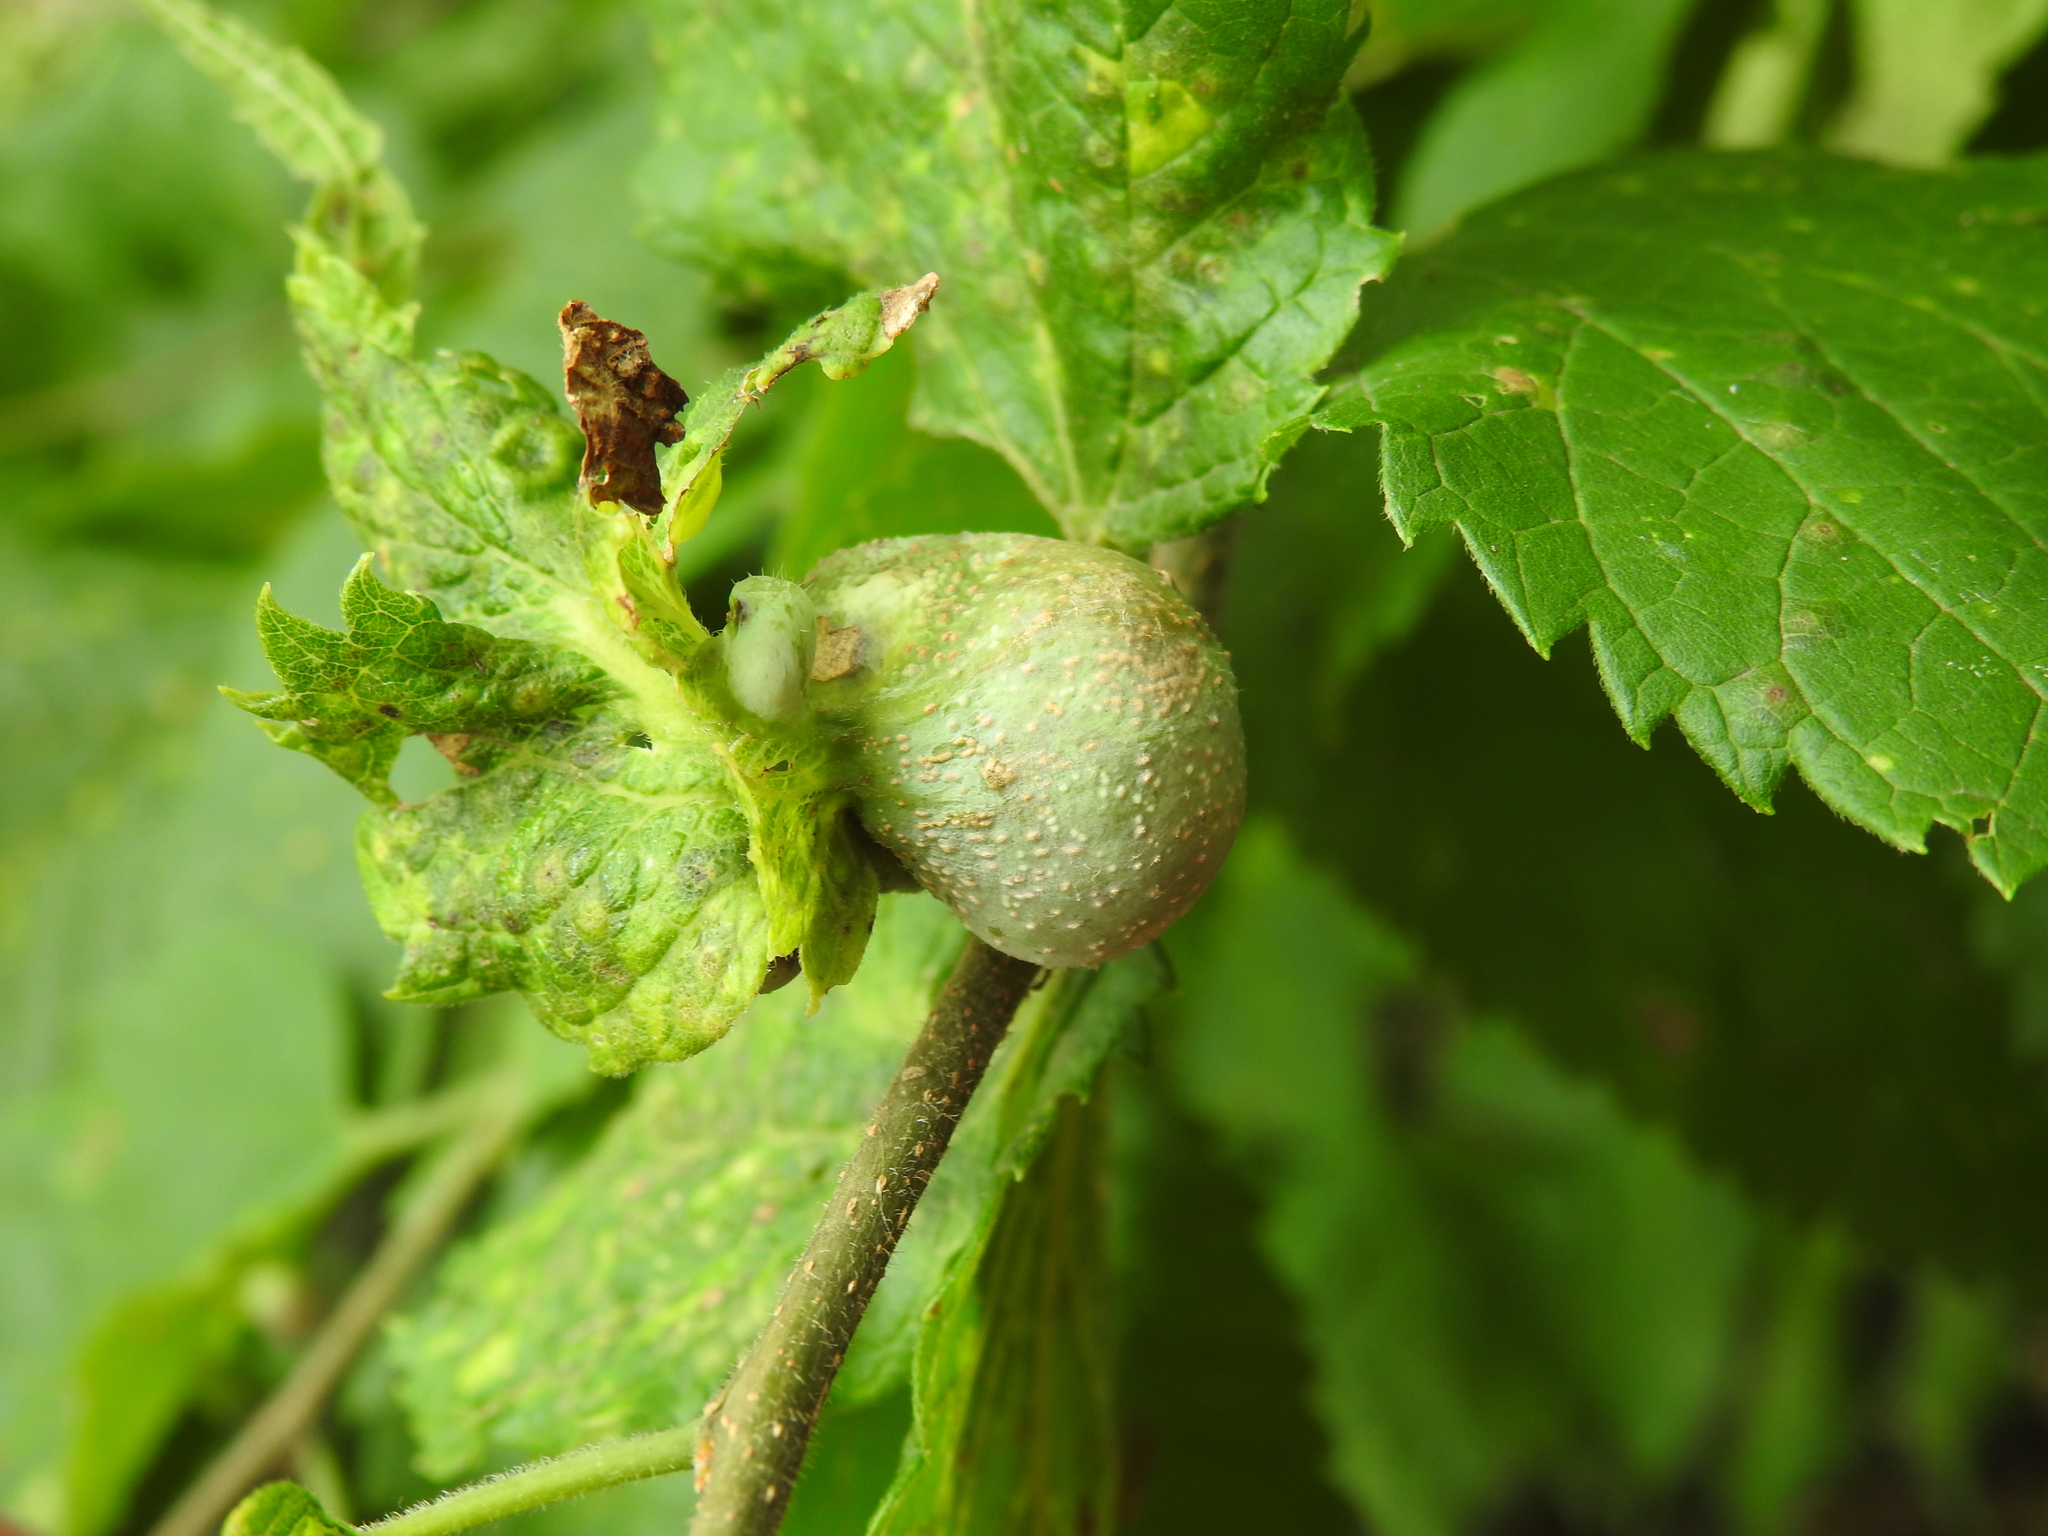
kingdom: Animalia
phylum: Arthropoda
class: Insecta
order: Hemiptera
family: Aphalaridae
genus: Pachypsylla
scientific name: Pachypsylla venusta
